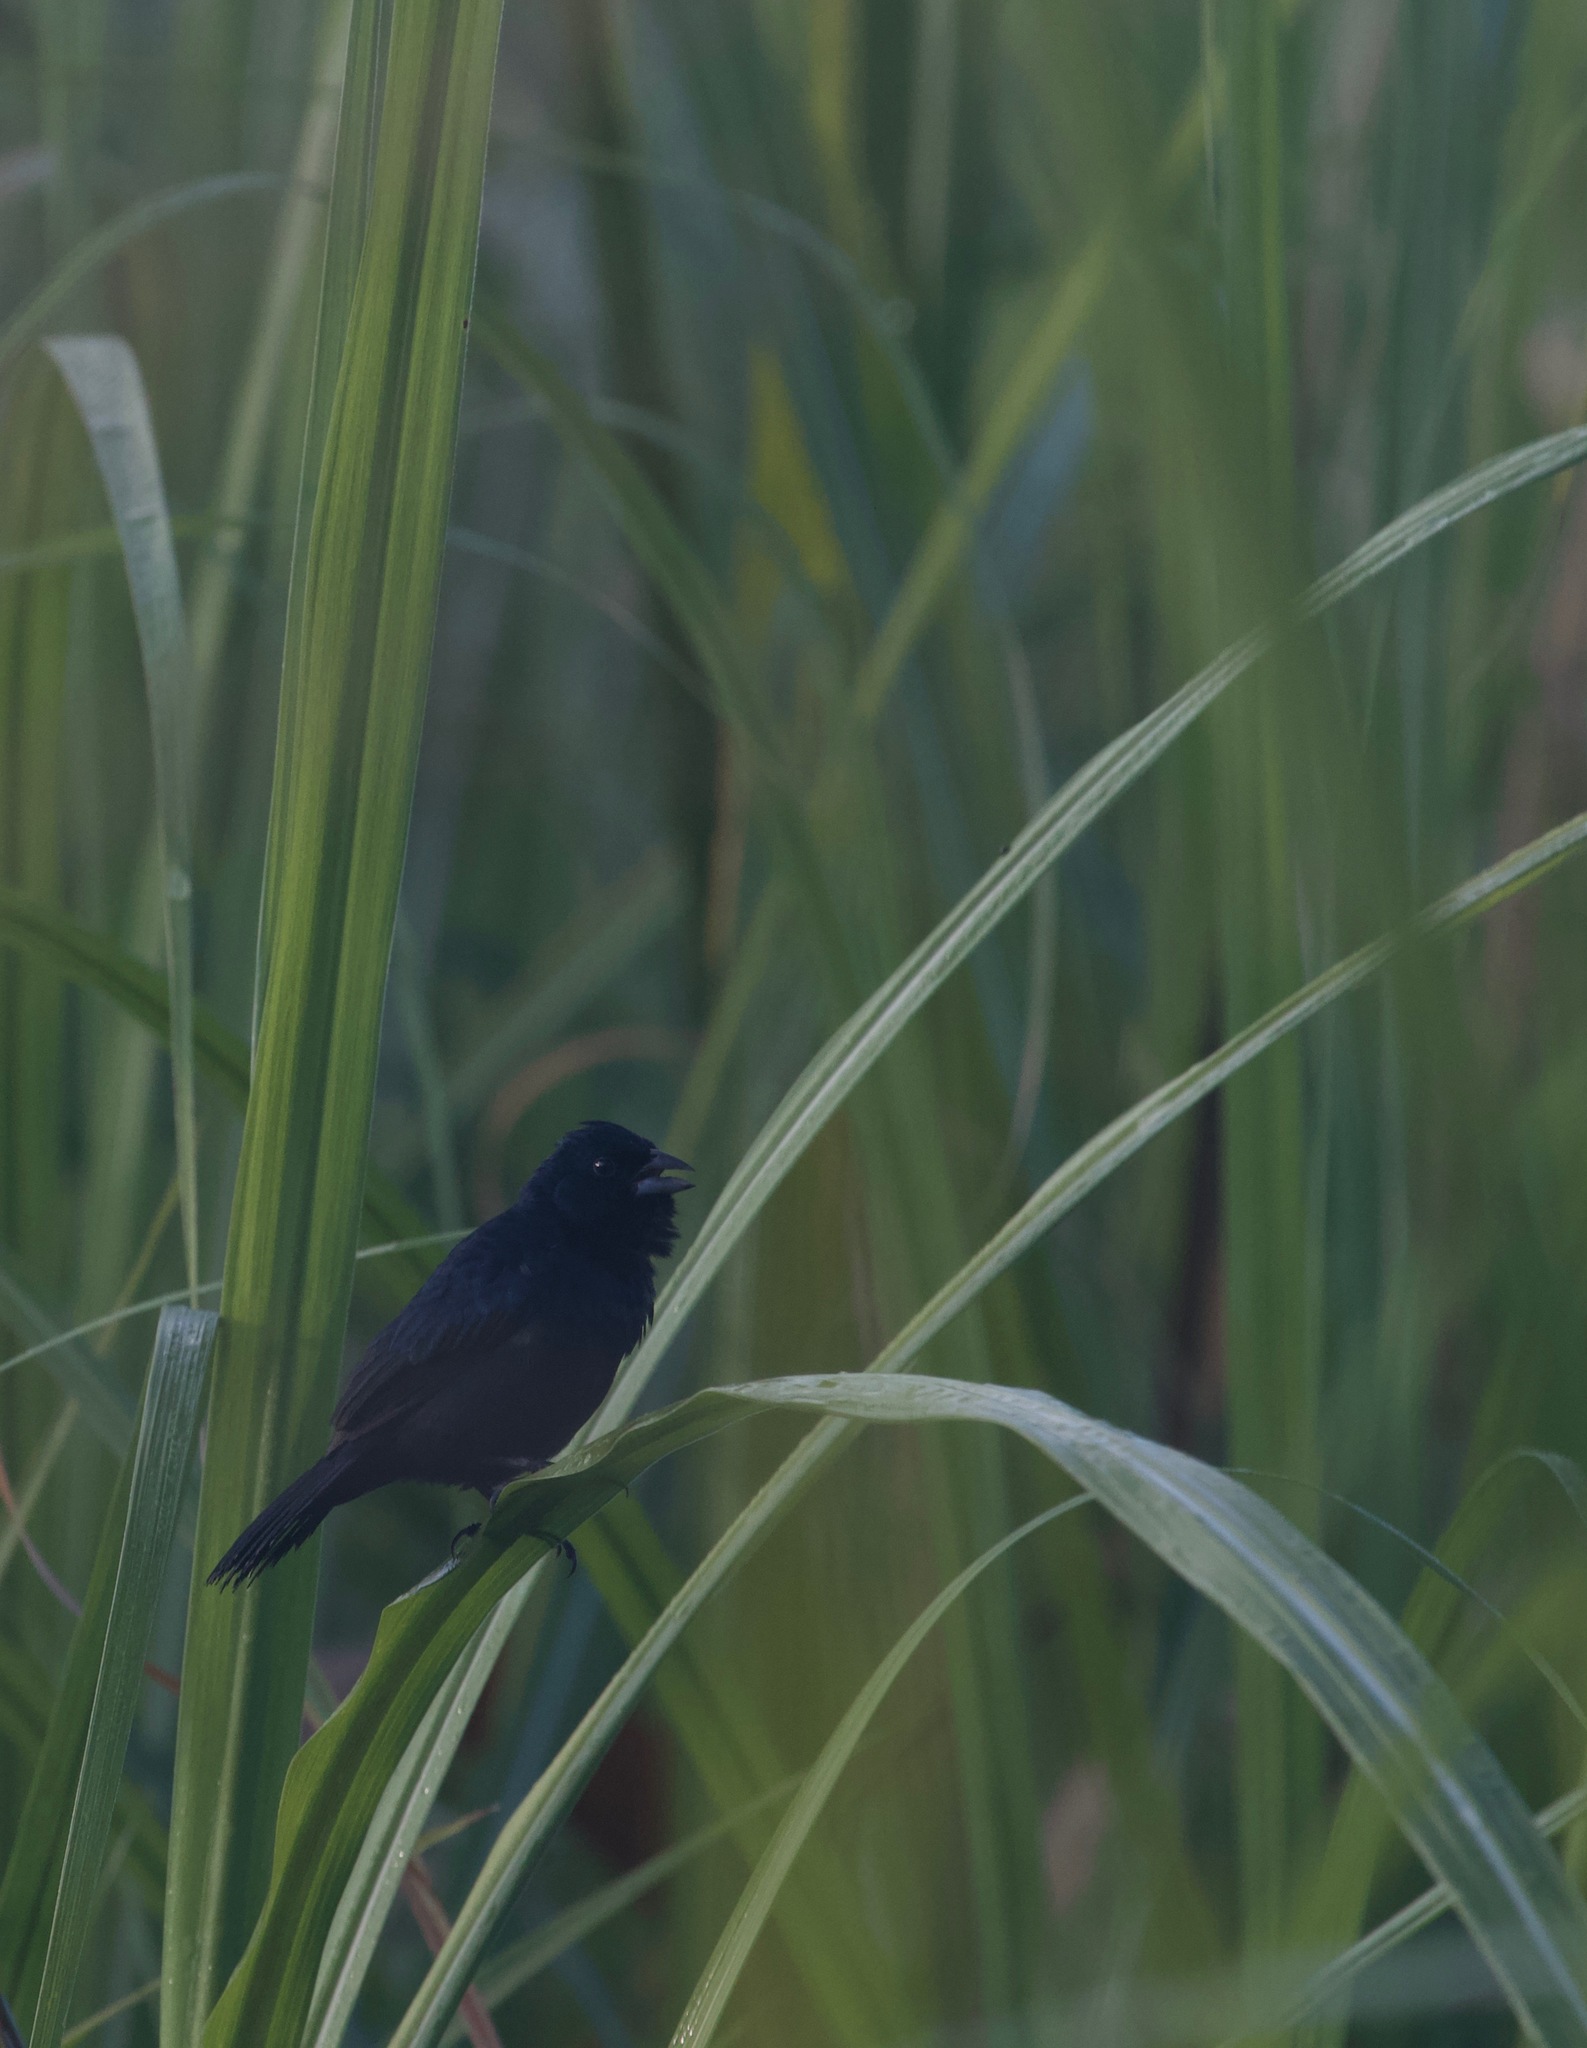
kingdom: Animalia
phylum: Chordata
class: Aves
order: Passeriformes
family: Thraupidae
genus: Sporophila
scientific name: Sporophila corvina
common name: Variable seedeater
